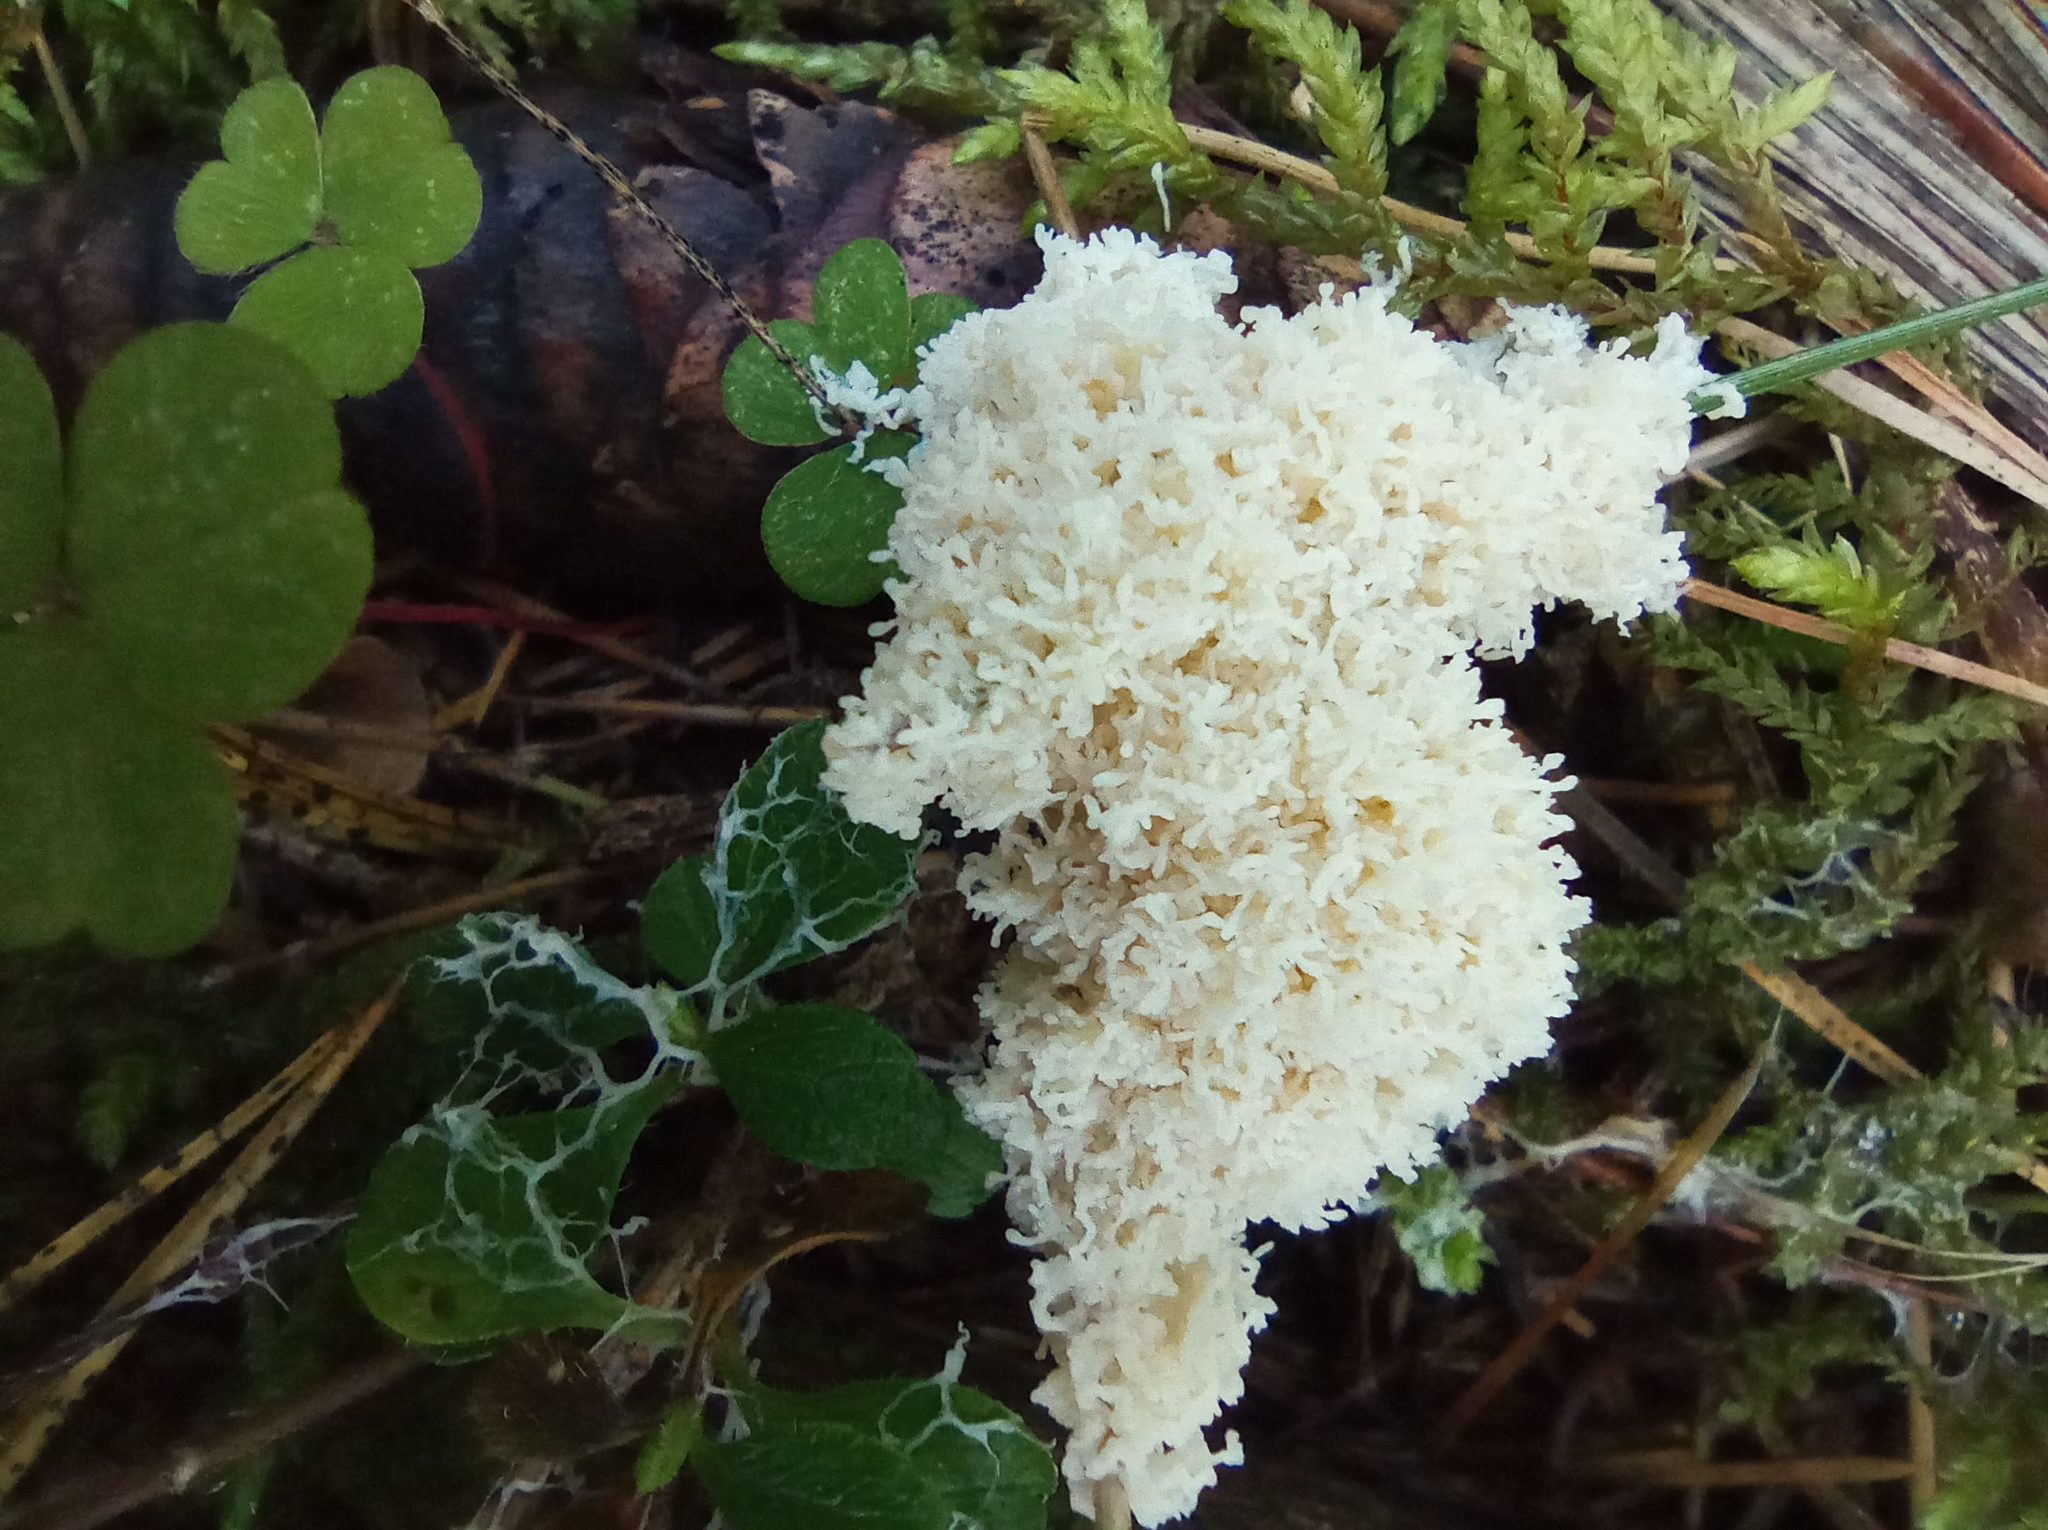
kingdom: Protozoa
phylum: Mycetozoa
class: Myxomycetes
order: Physarales
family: Physaraceae
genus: Didymium
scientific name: Didymium
